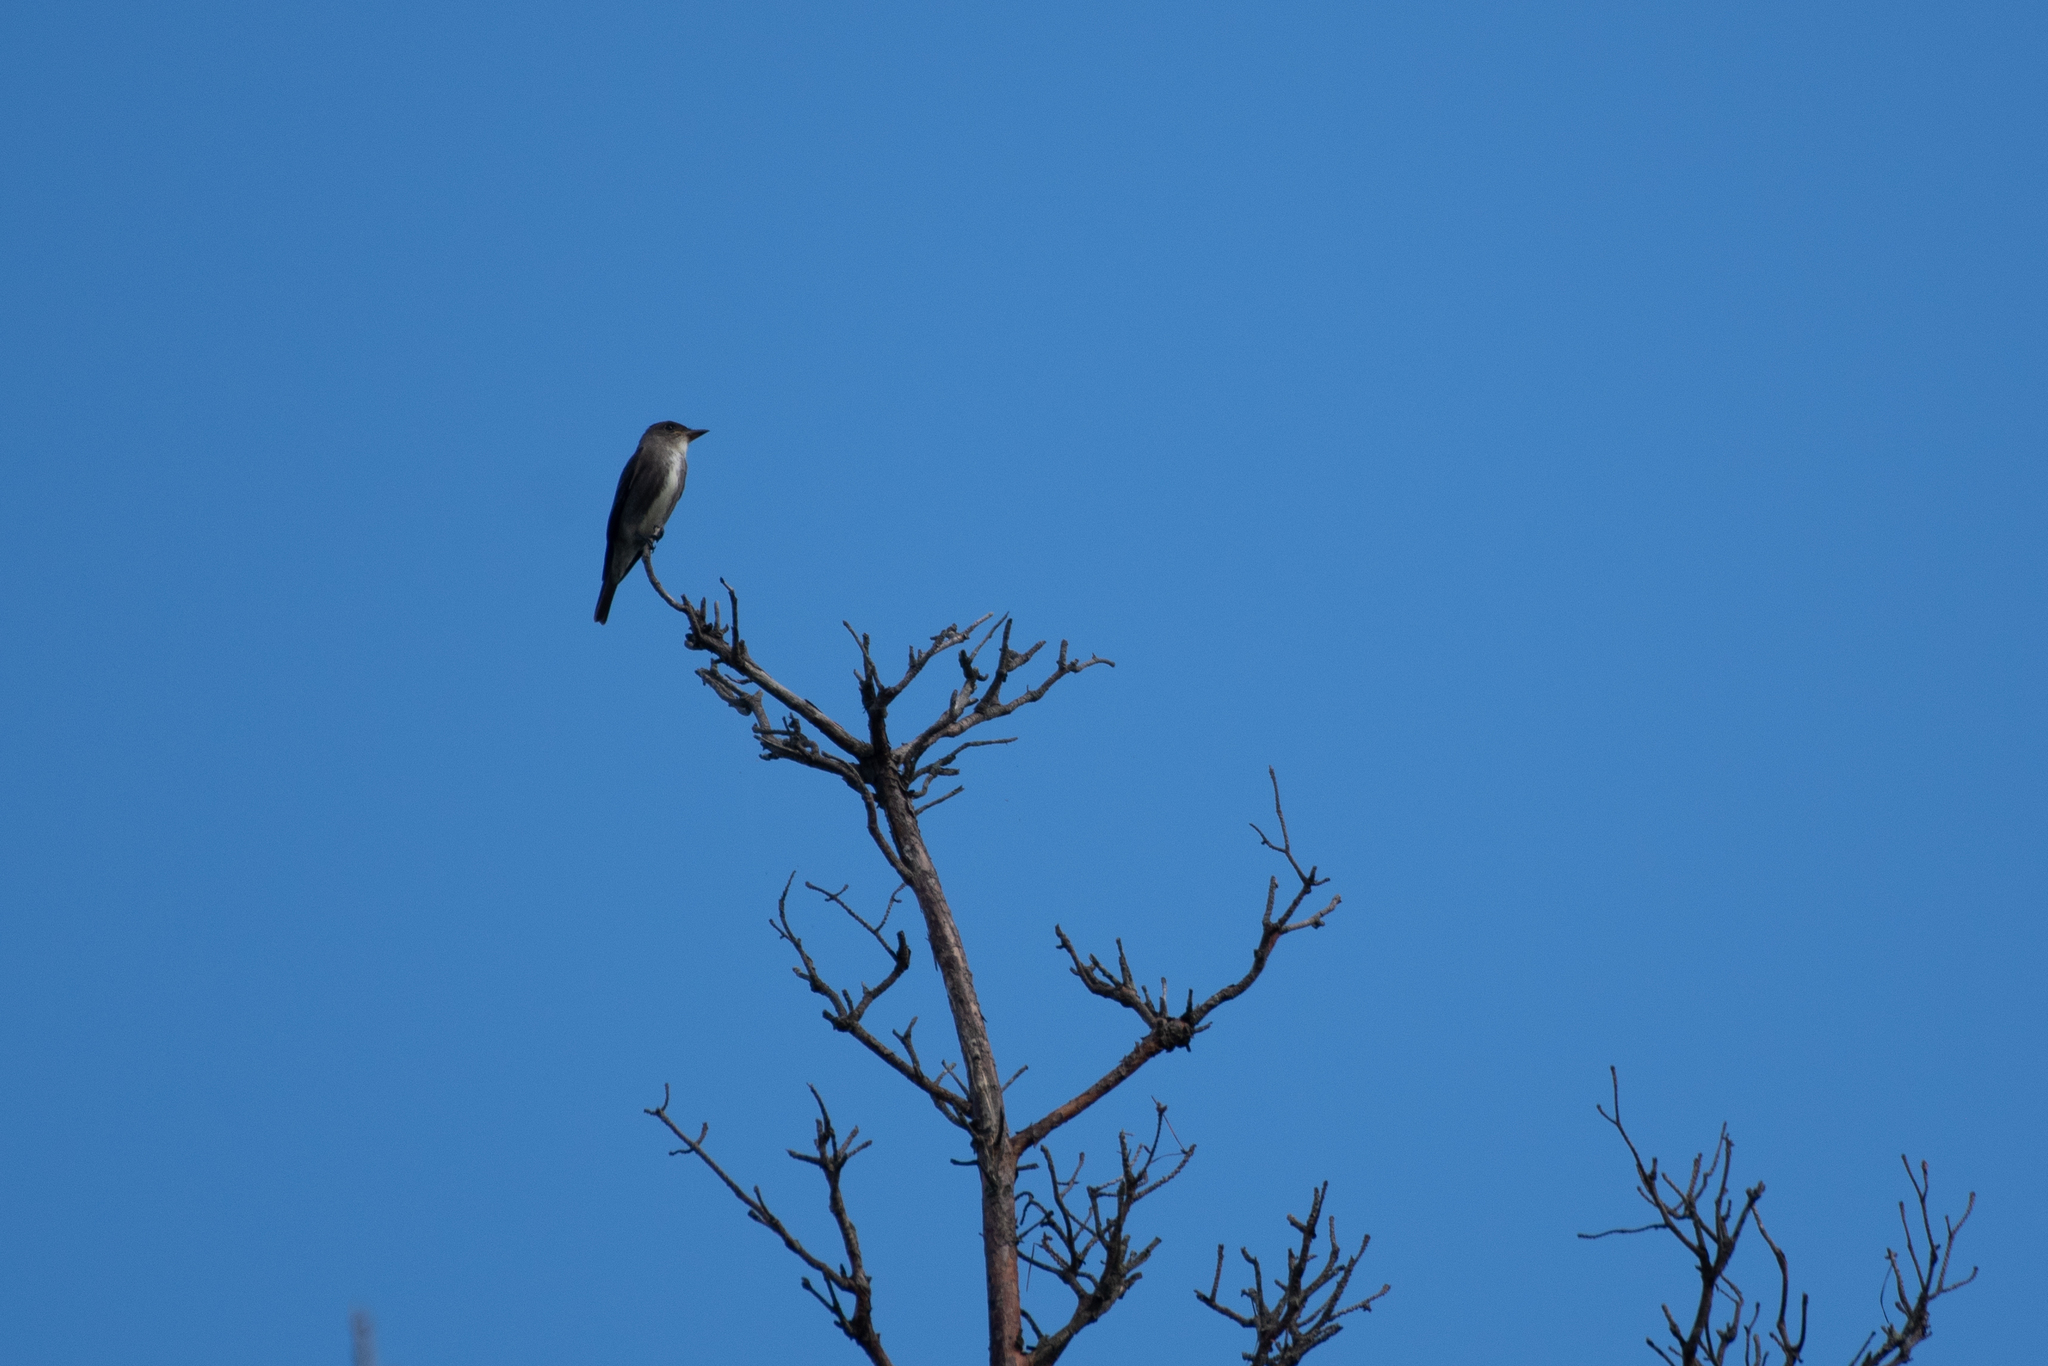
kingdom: Animalia
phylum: Chordata
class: Aves
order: Passeriformes
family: Tyrannidae
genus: Contopus
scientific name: Contopus cooperi
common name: Olive-sided flycatcher
